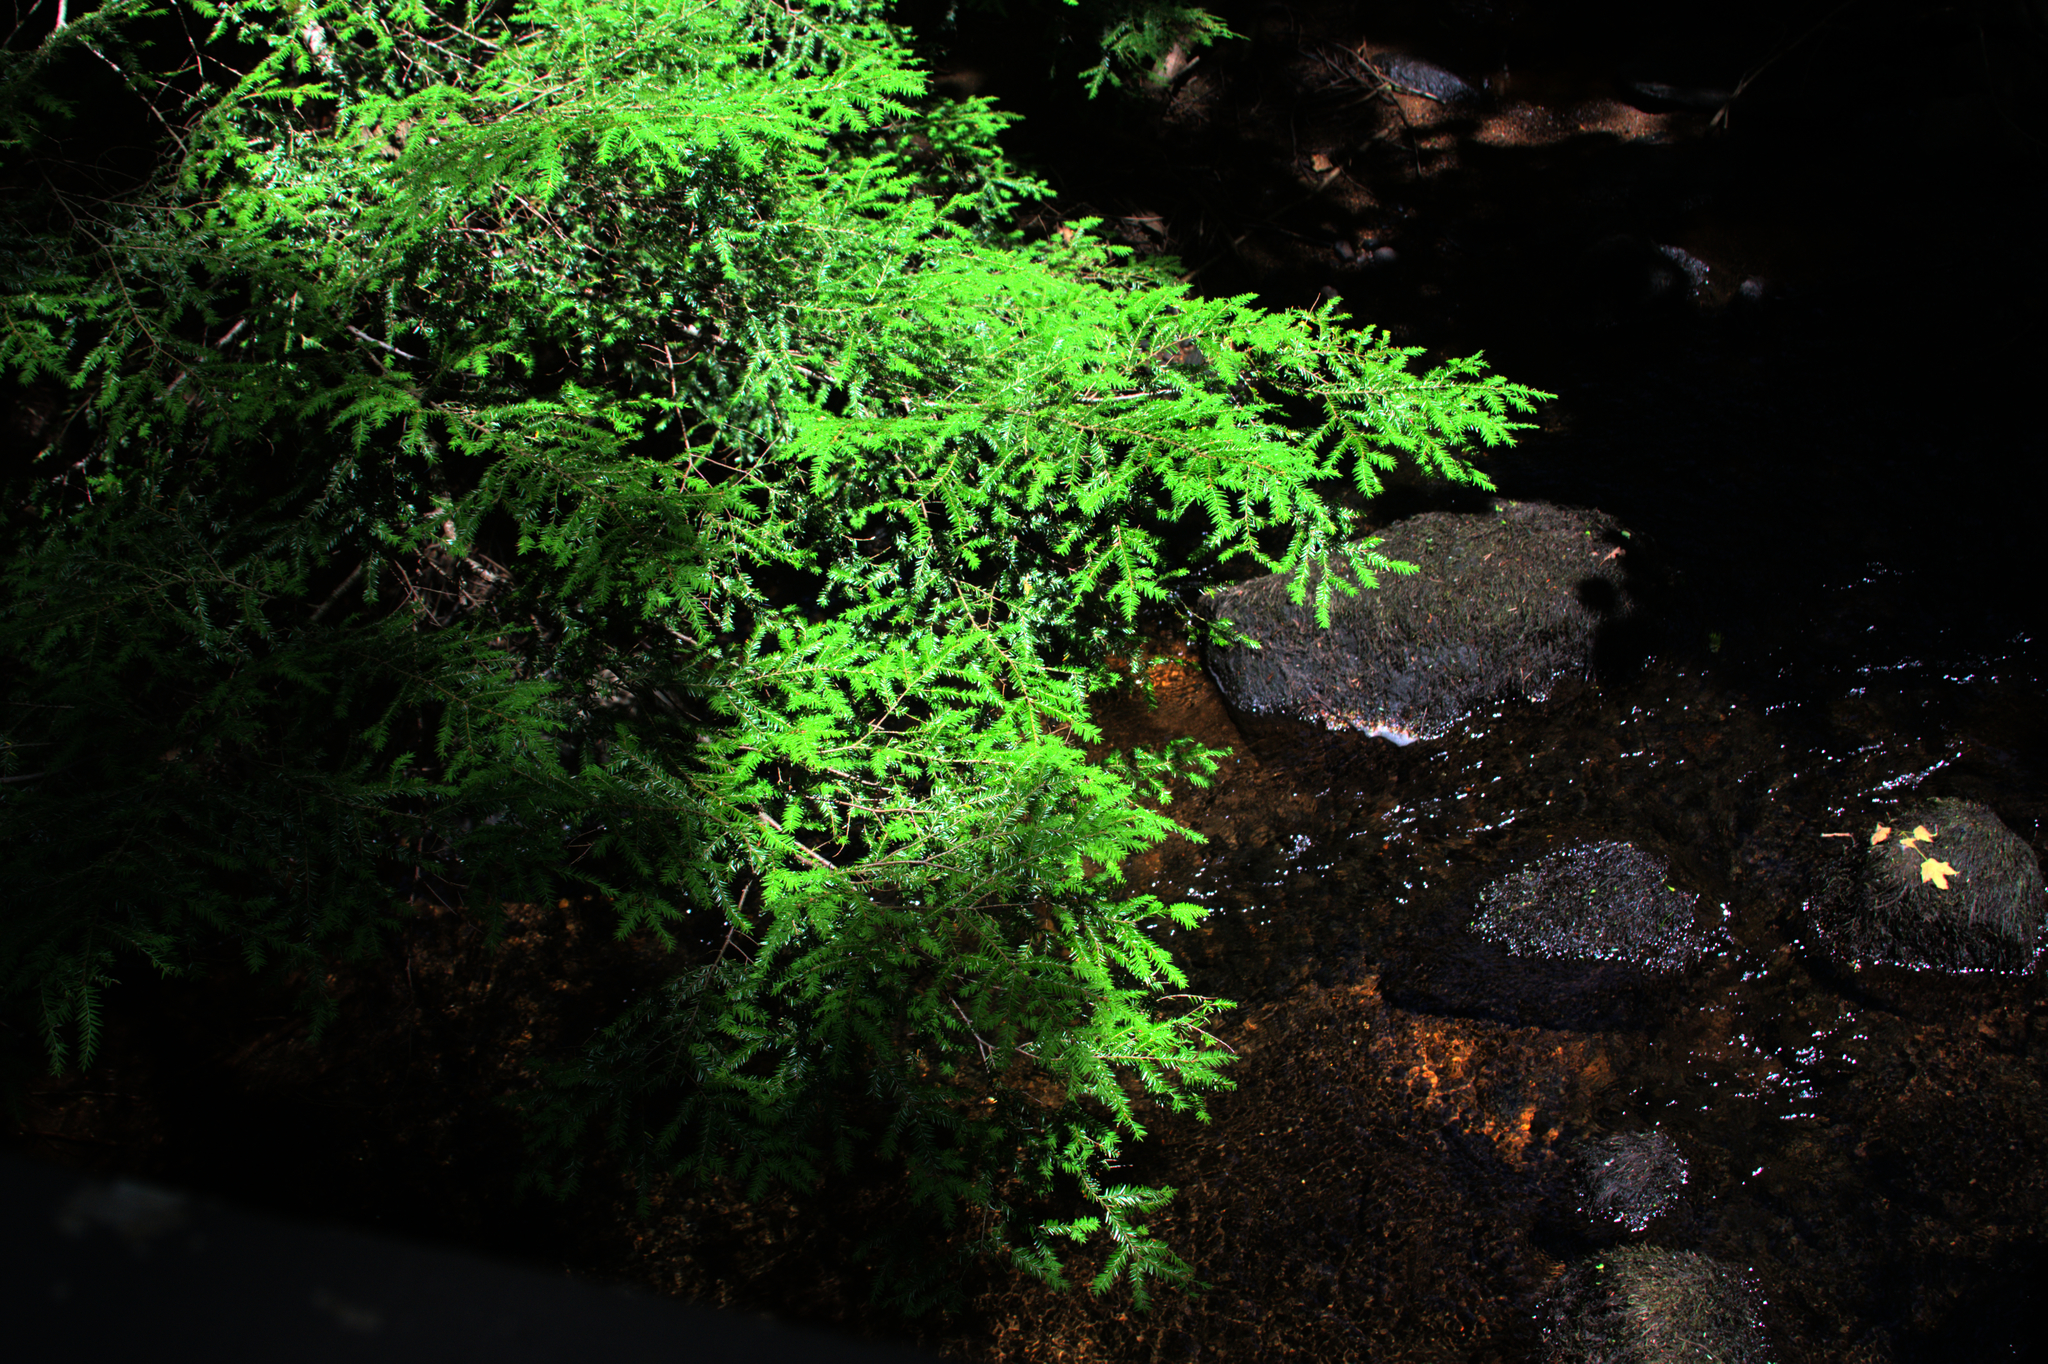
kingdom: Plantae
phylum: Tracheophyta
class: Pinopsida
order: Pinales
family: Pinaceae
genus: Tsuga
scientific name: Tsuga canadensis
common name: Eastern hemlock
